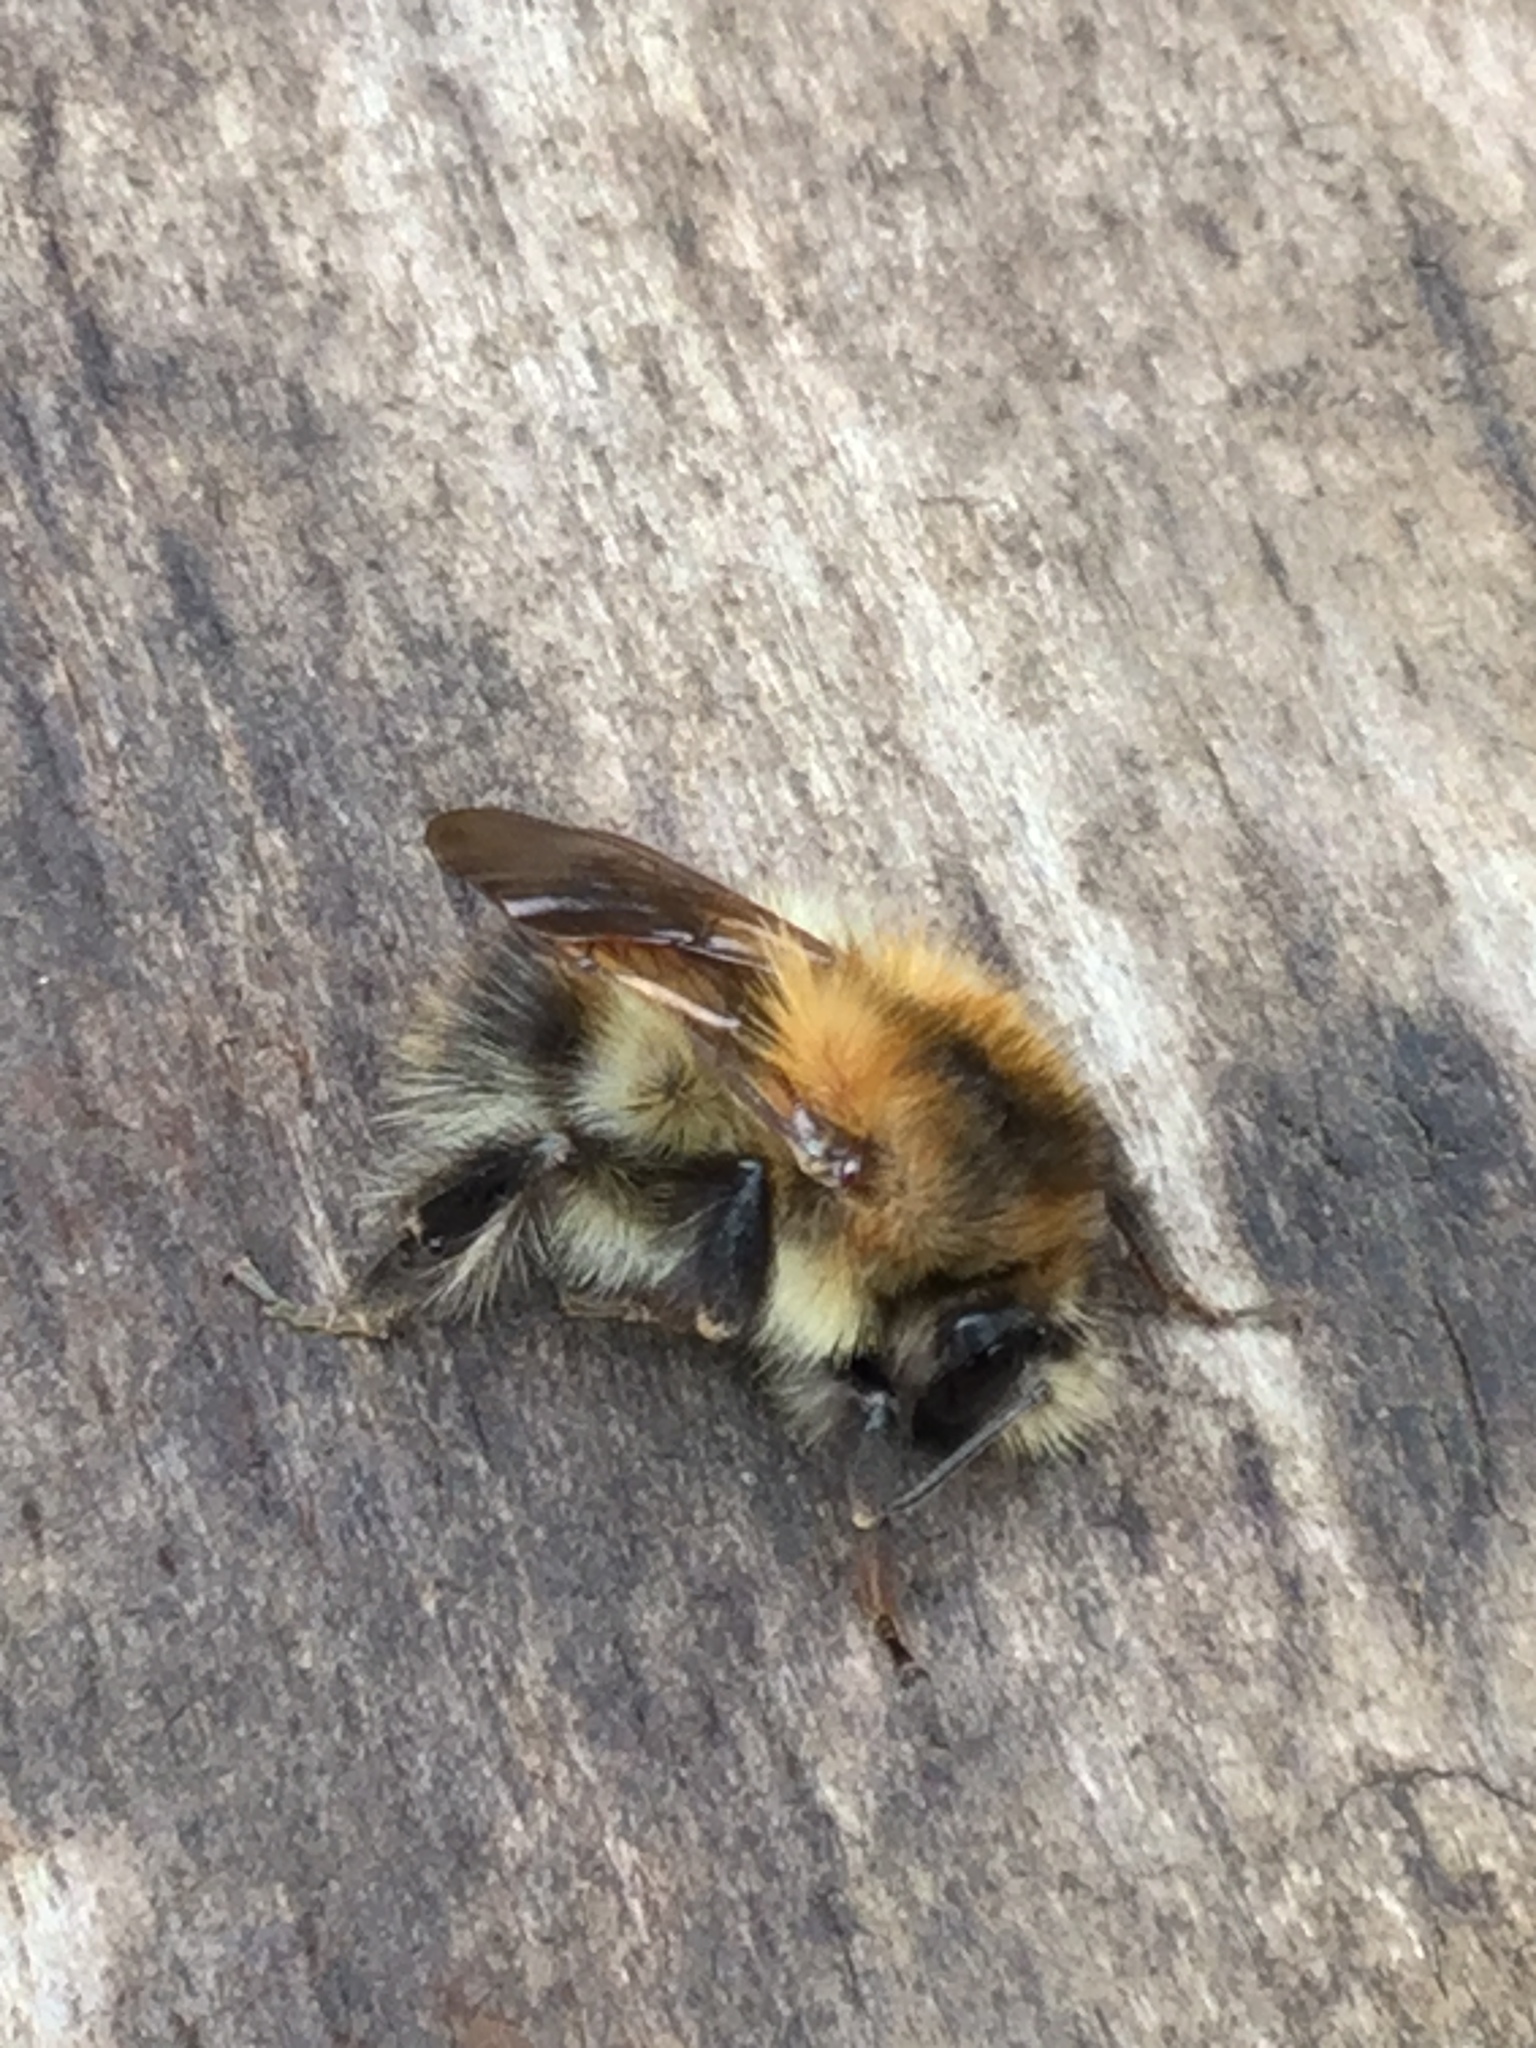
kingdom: Animalia
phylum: Arthropoda
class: Insecta
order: Hymenoptera
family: Apidae
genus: Bombus
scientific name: Bombus pascuorum
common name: Common carder bee
